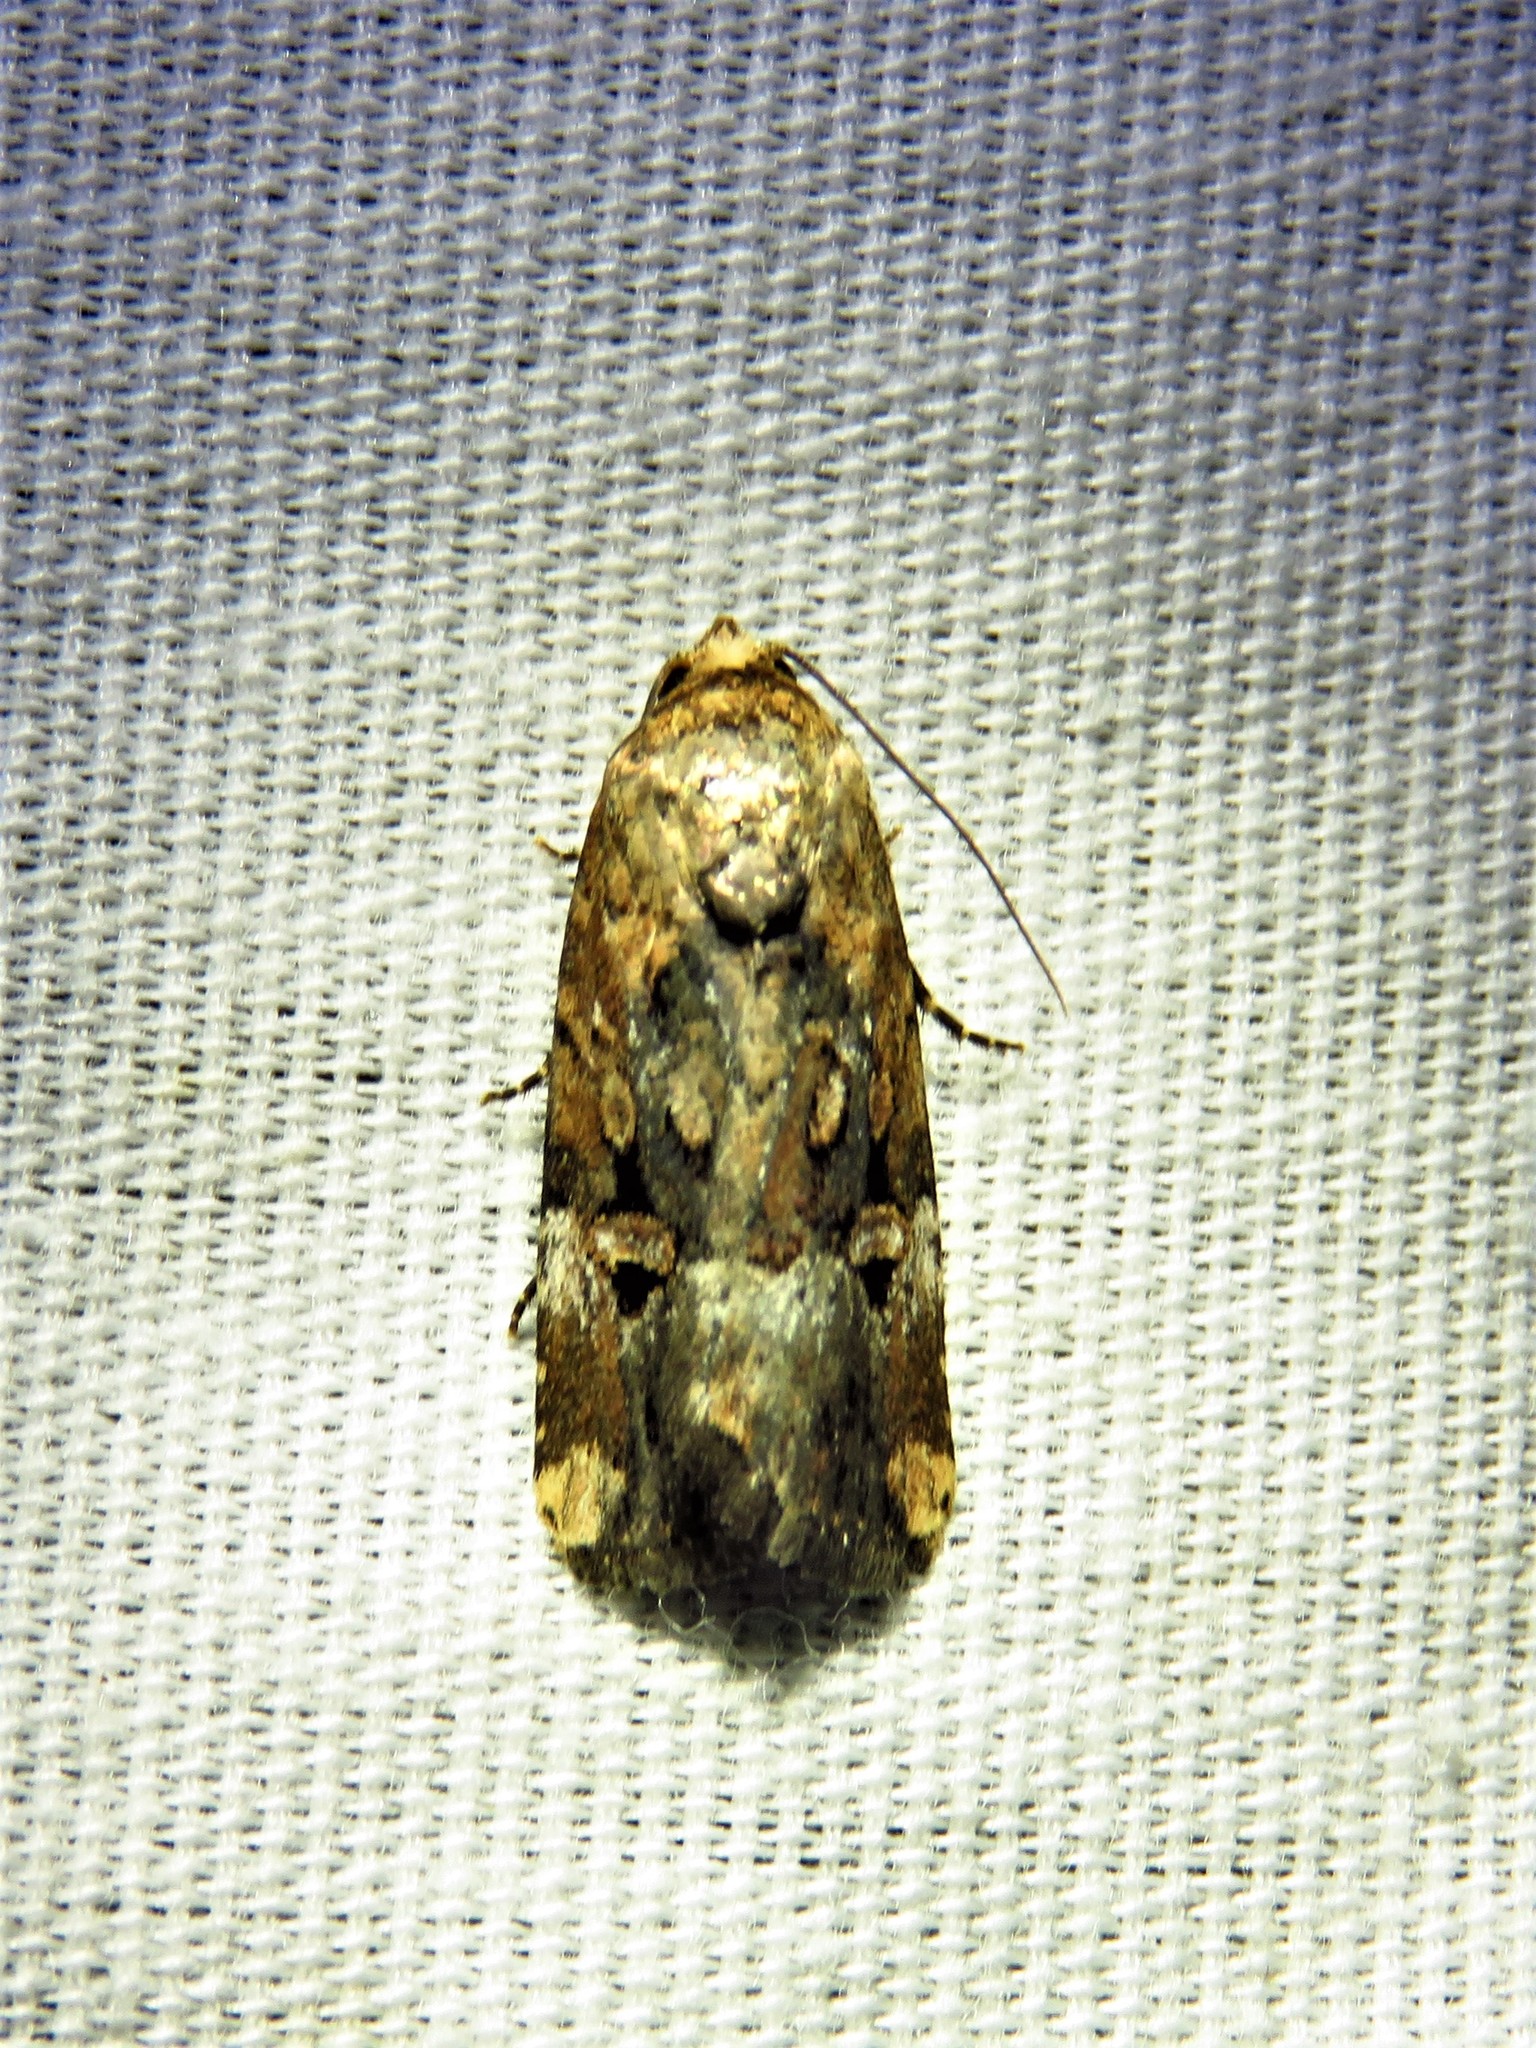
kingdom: Animalia
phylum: Arthropoda
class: Insecta
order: Lepidoptera
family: Noctuidae
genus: Elaphria
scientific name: Elaphria chalcedonia
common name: Chalcedony midget
